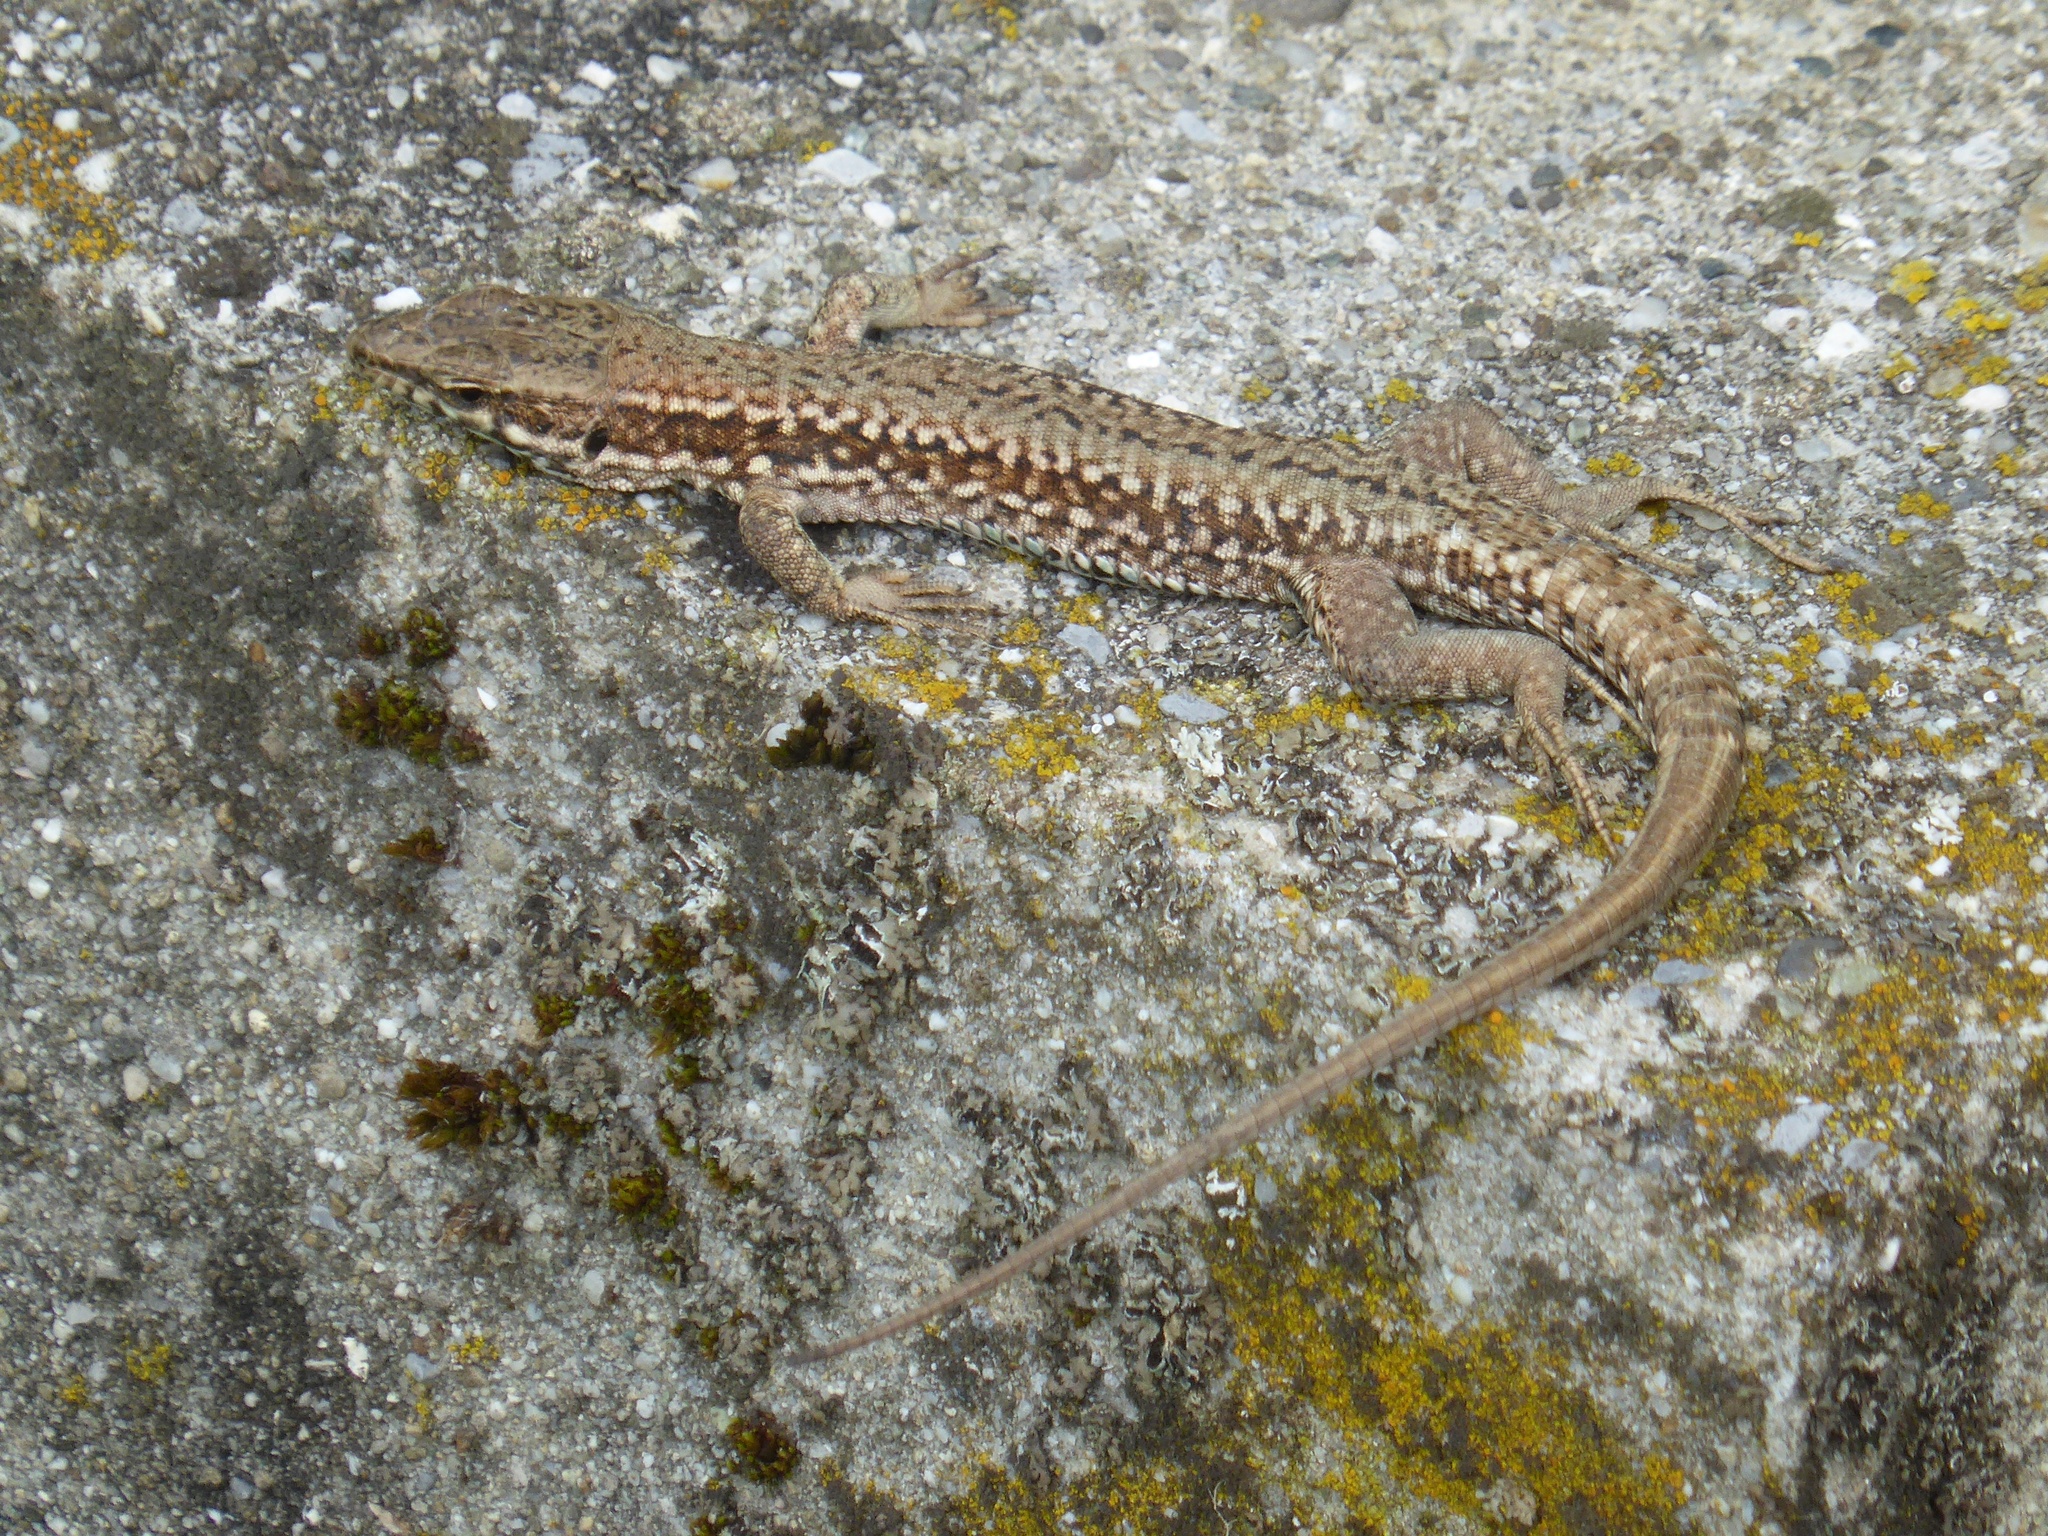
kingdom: Animalia
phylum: Chordata
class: Squamata
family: Lacertidae
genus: Podarcis
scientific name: Podarcis muralis
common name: Common wall lizard
